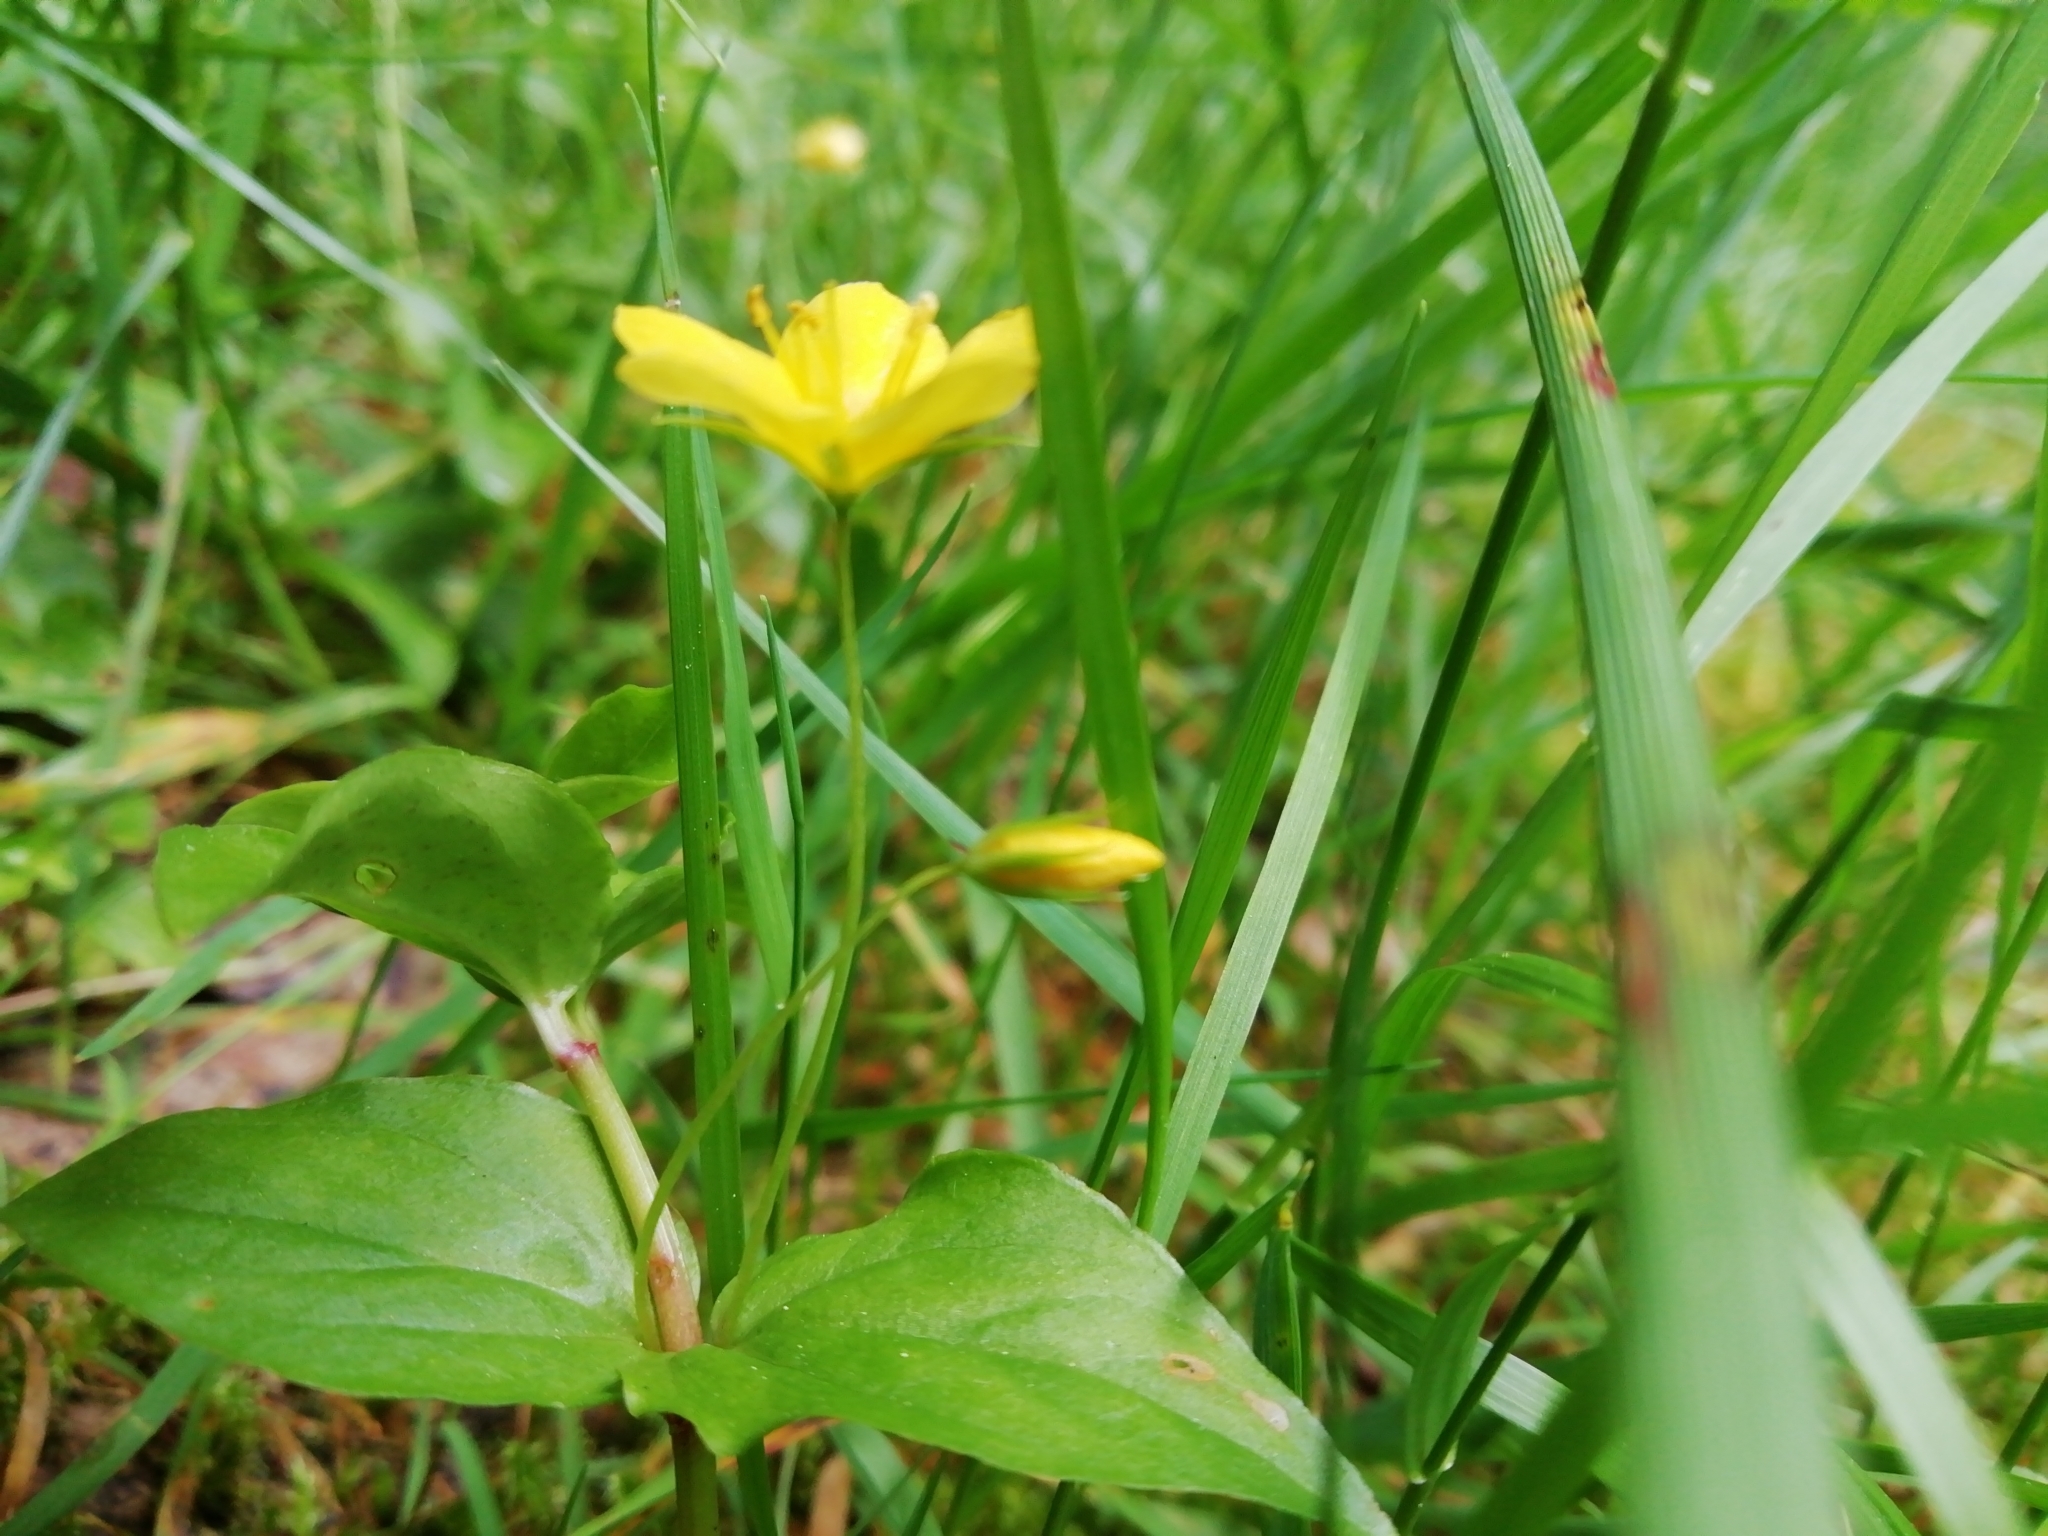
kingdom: Plantae
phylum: Tracheophyta
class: Magnoliopsida
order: Ericales
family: Primulaceae
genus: Lysimachia
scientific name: Lysimachia nemorum
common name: Yellow pimpernel
